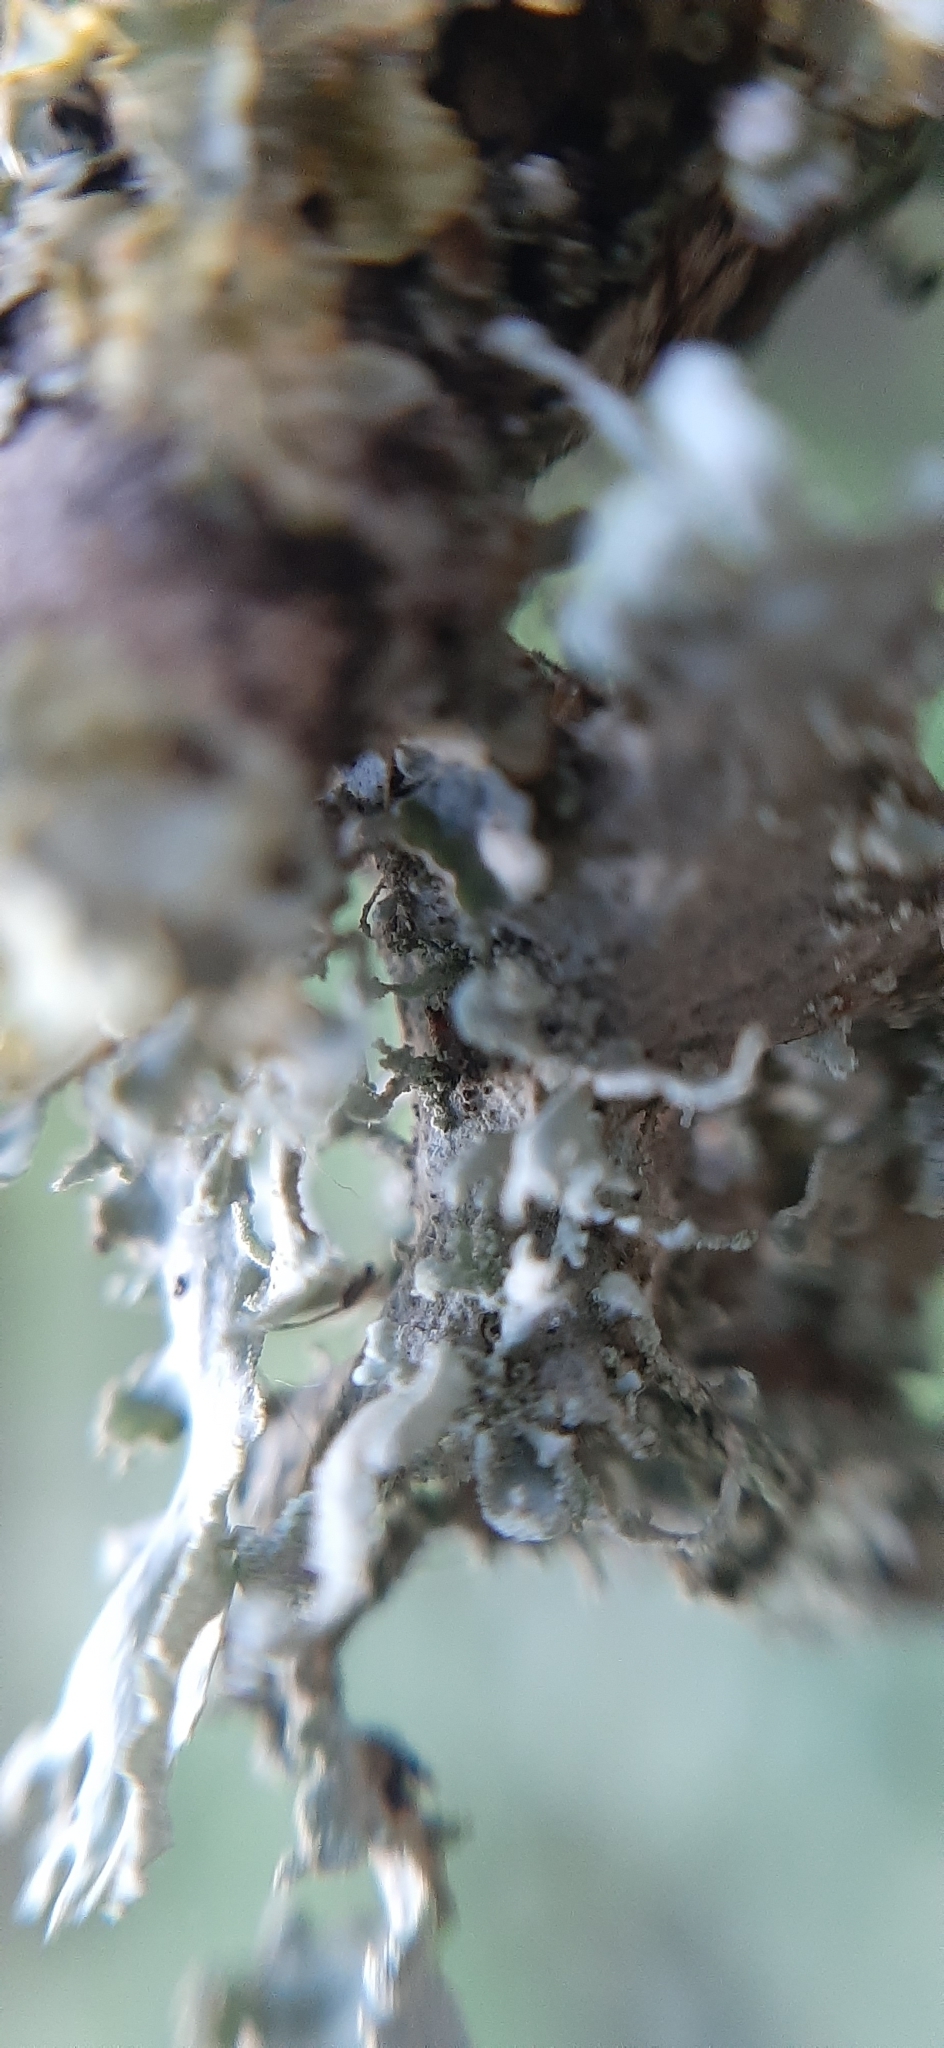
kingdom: Fungi
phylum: Ascomycota
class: Lecanoromycetes
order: Lecanorales
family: Ramalinaceae
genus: Ramalina
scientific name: Ramalina lacera
